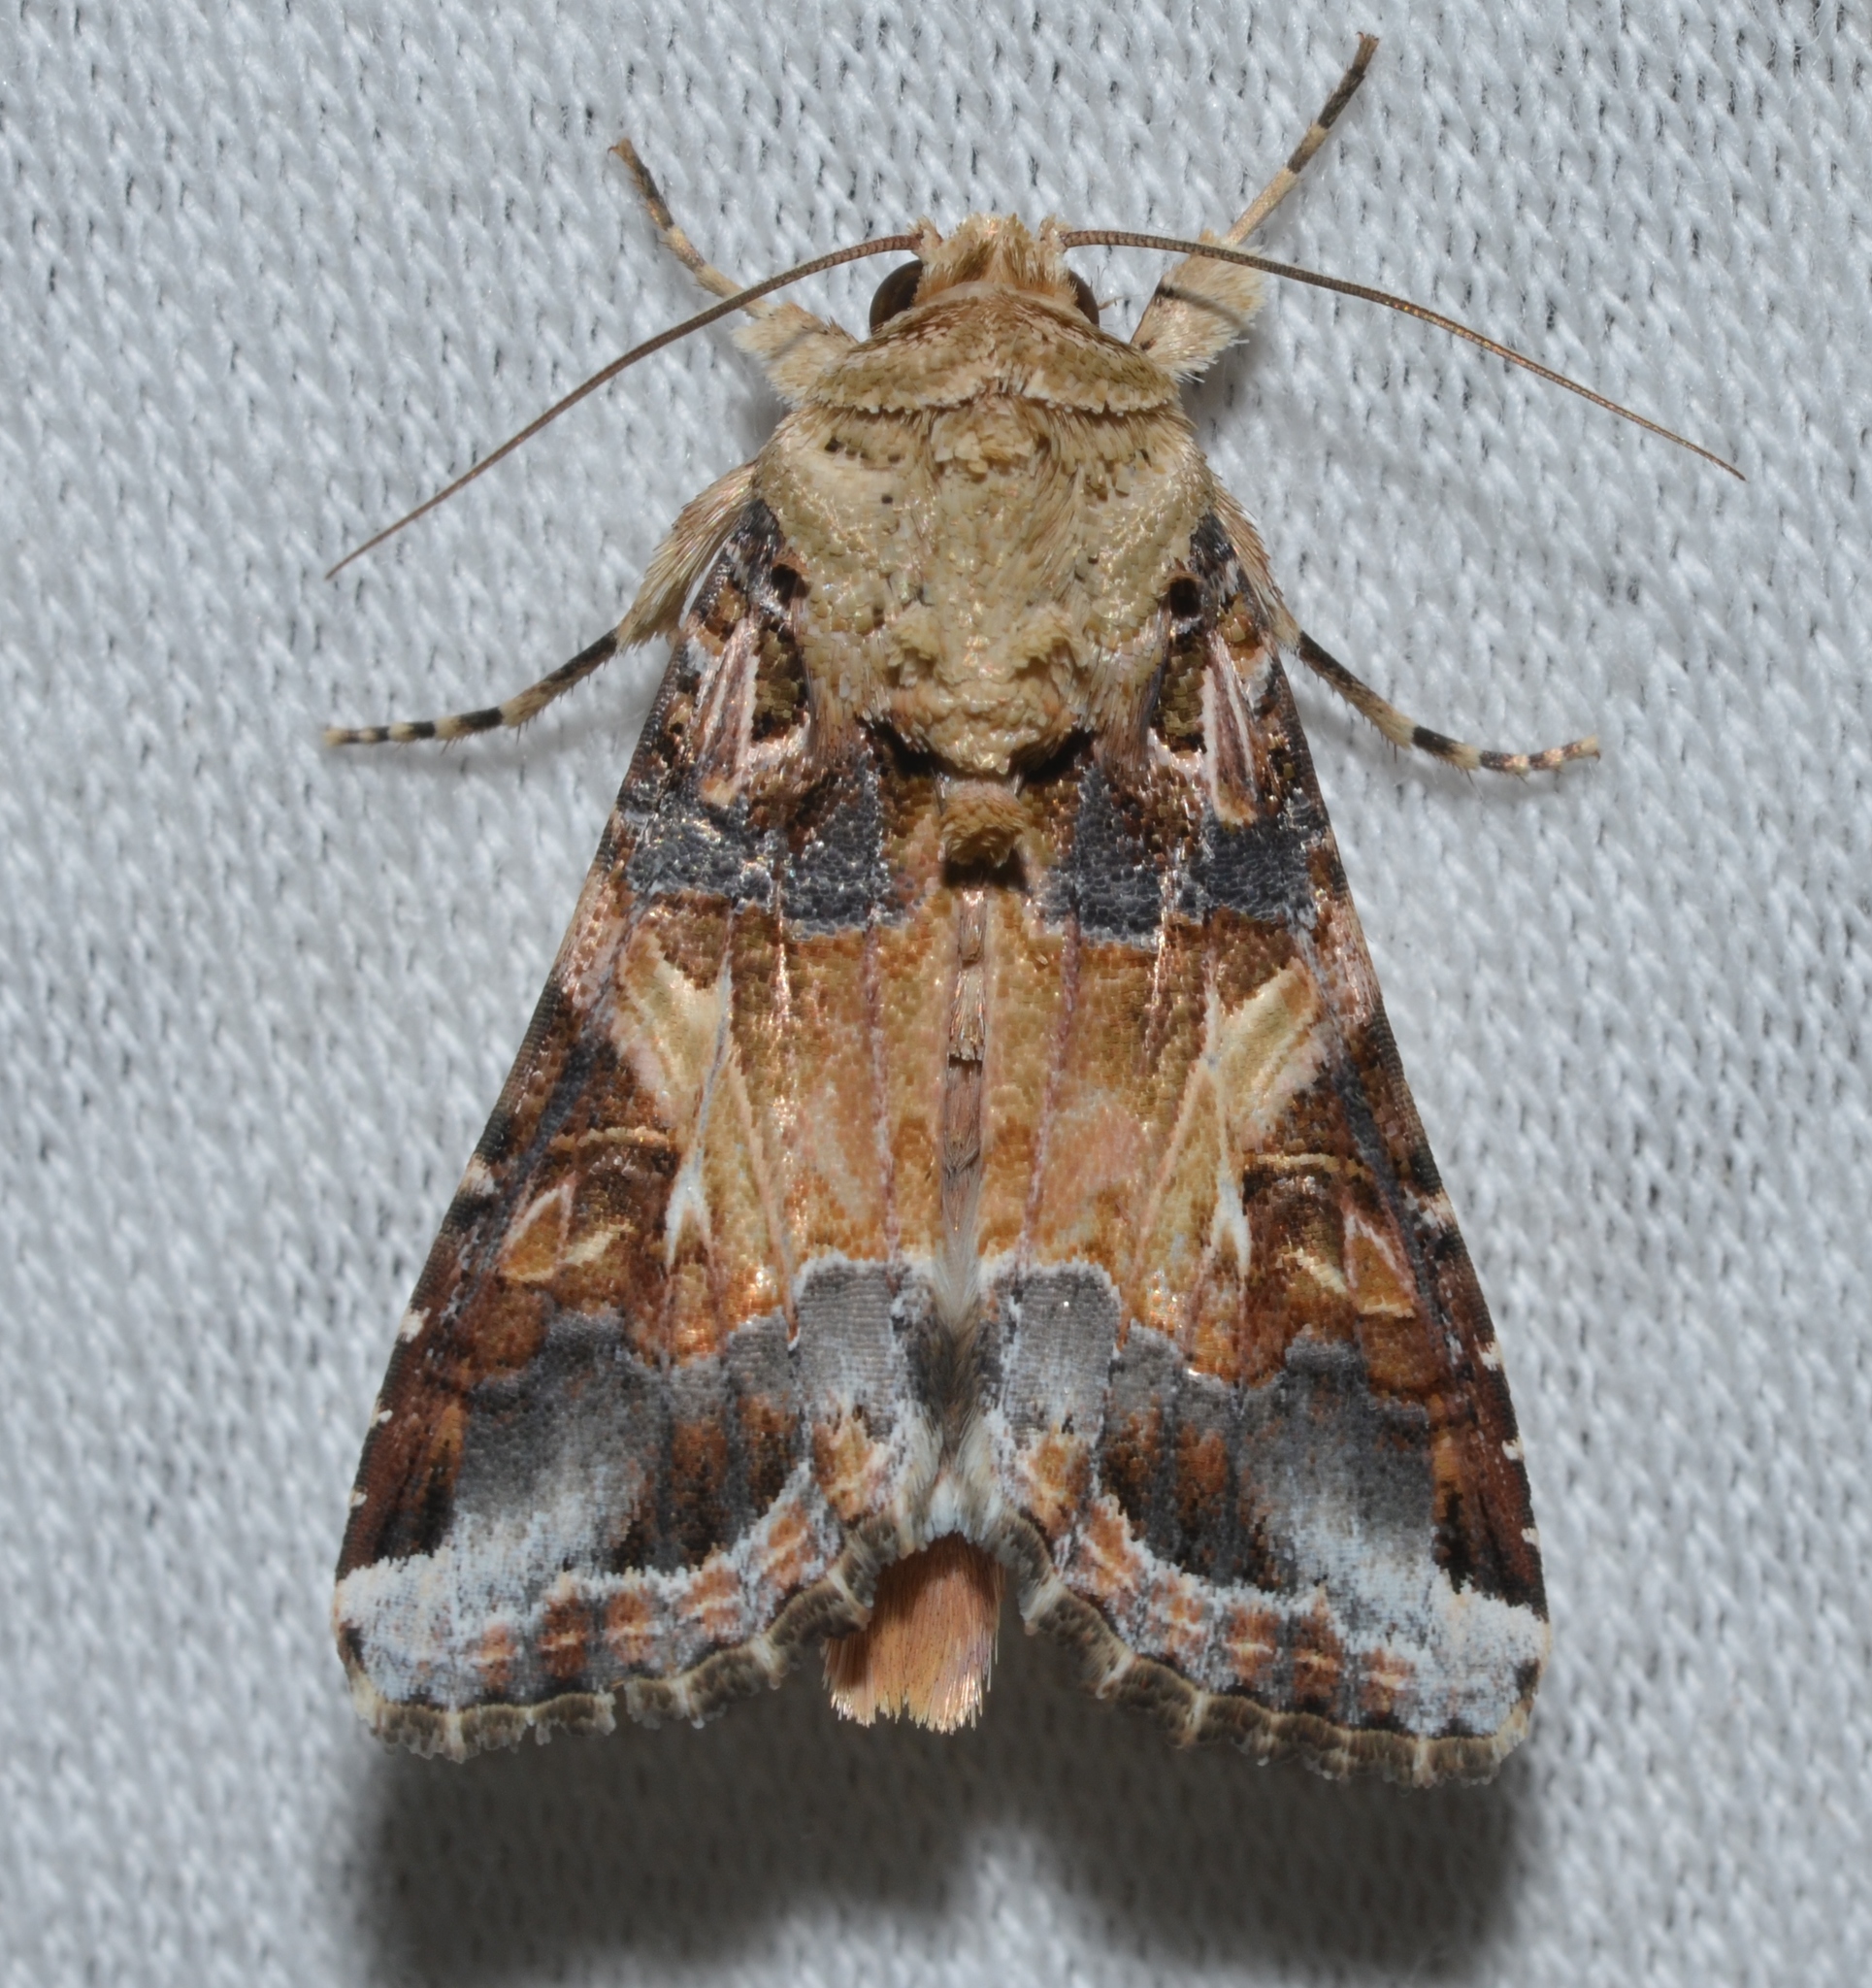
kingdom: Animalia
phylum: Arthropoda
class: Insecta
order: Lepidoptera
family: Noctuidae
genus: Spodoptera
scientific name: Spodoptera ornithogalli
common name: Yellow-striped armyworm
